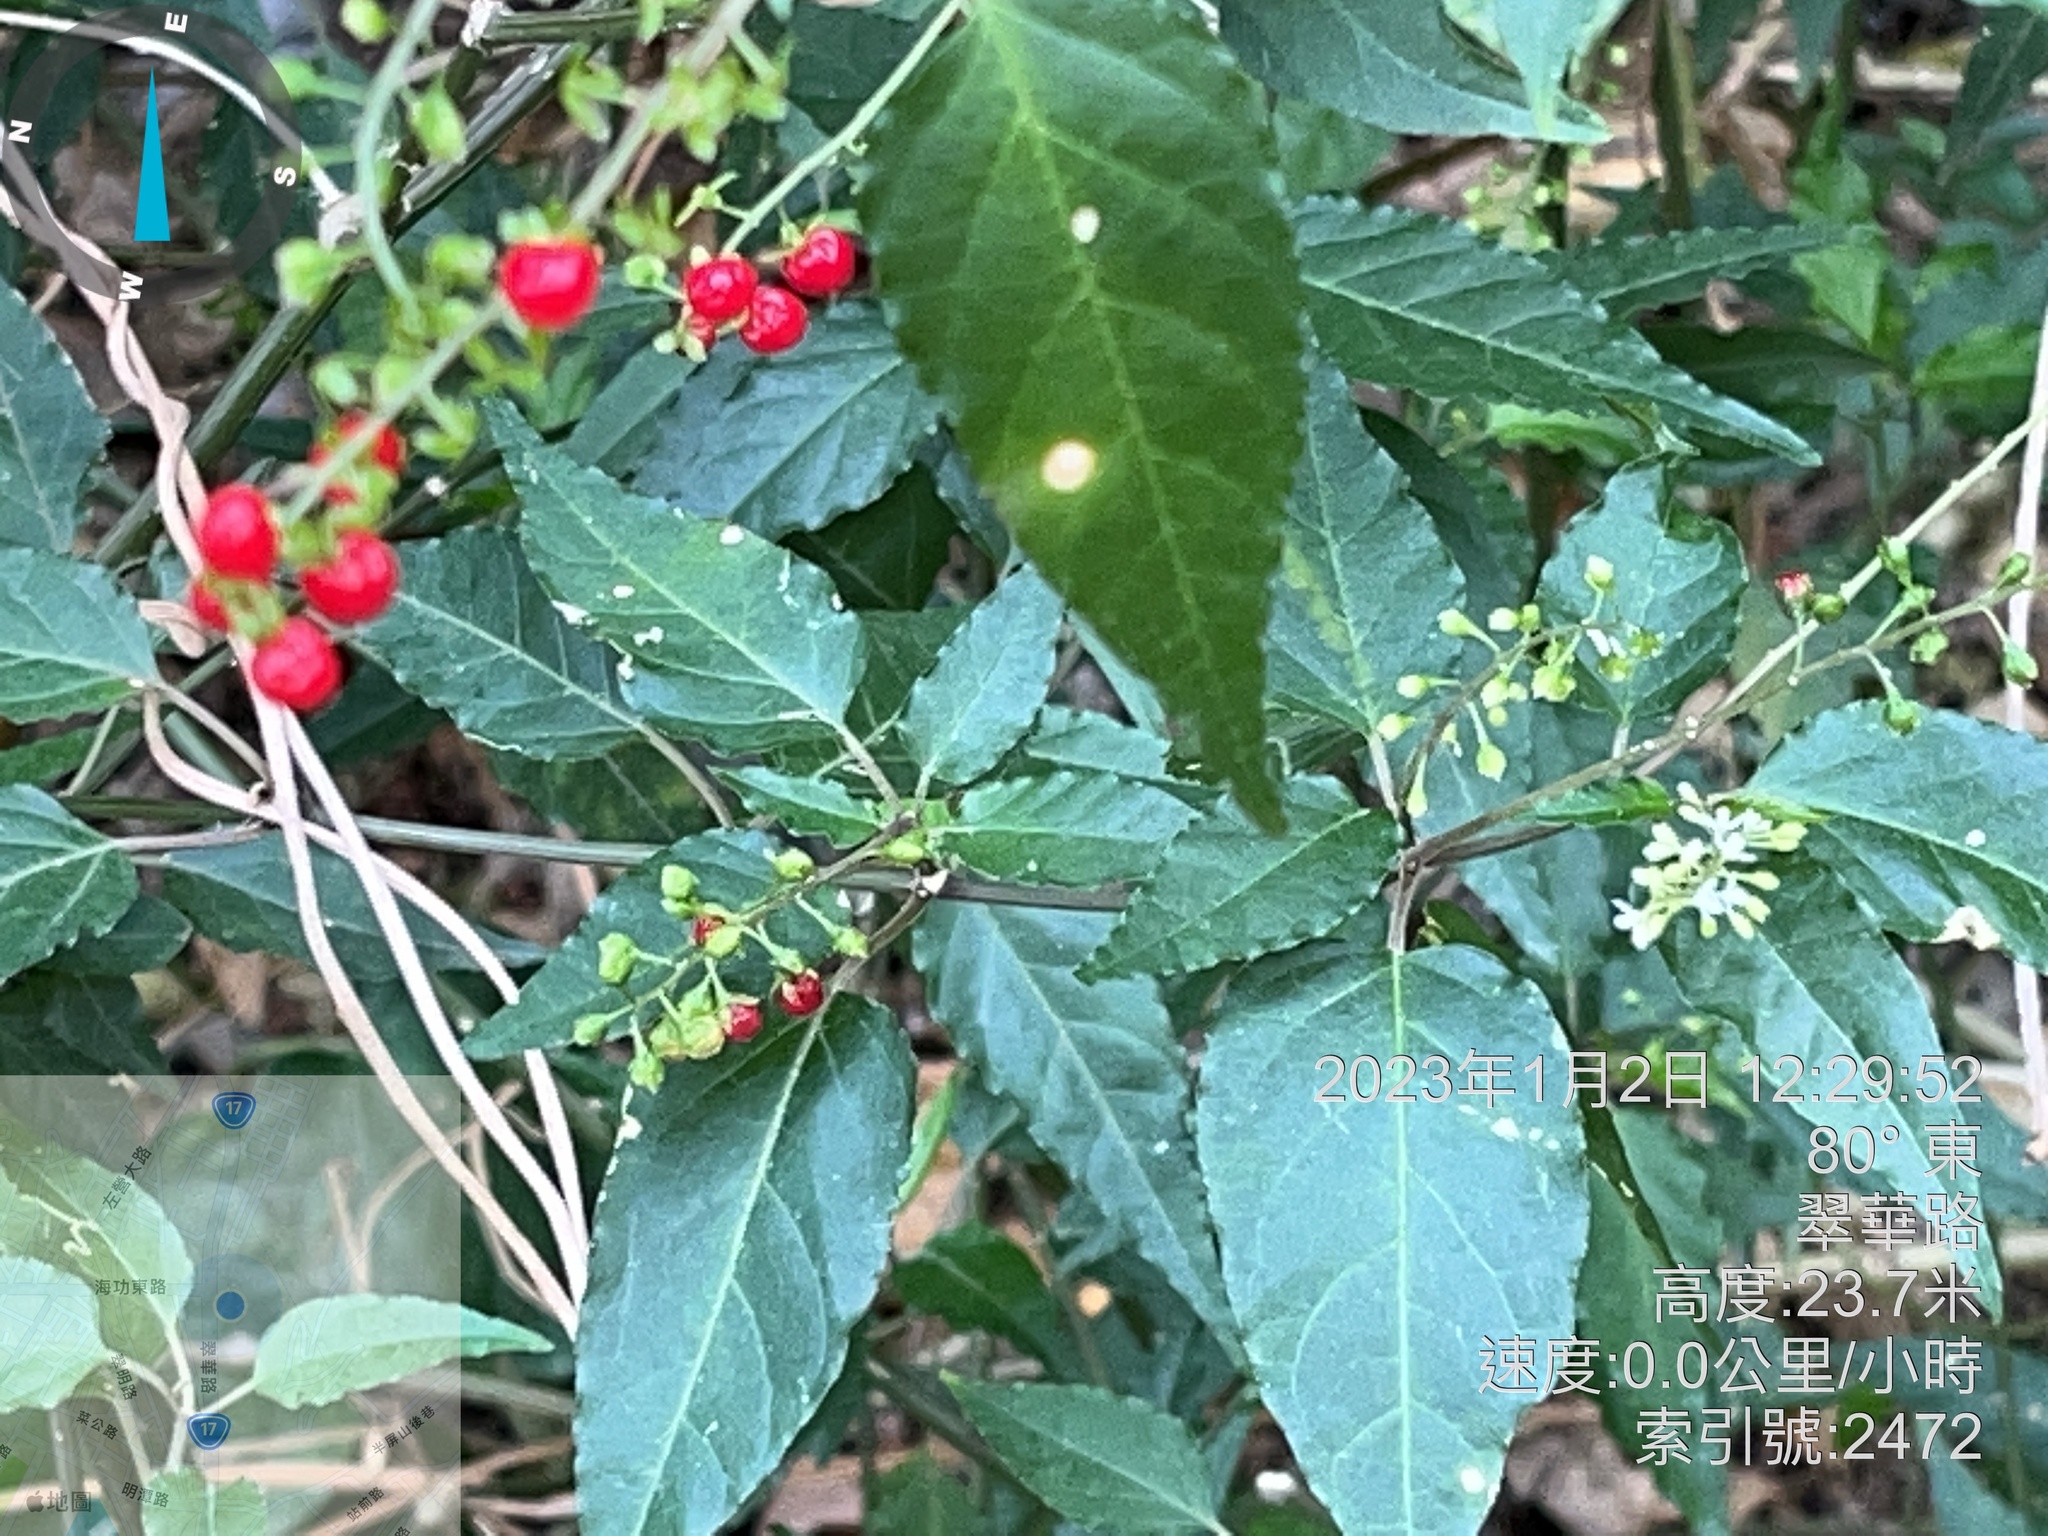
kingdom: Plantae
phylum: Tracheophyta
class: Magnoliopsida
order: Caryophyllales
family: Phytolaccaceae
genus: Rivina
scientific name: Rivina humilis
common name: Rougeplant
